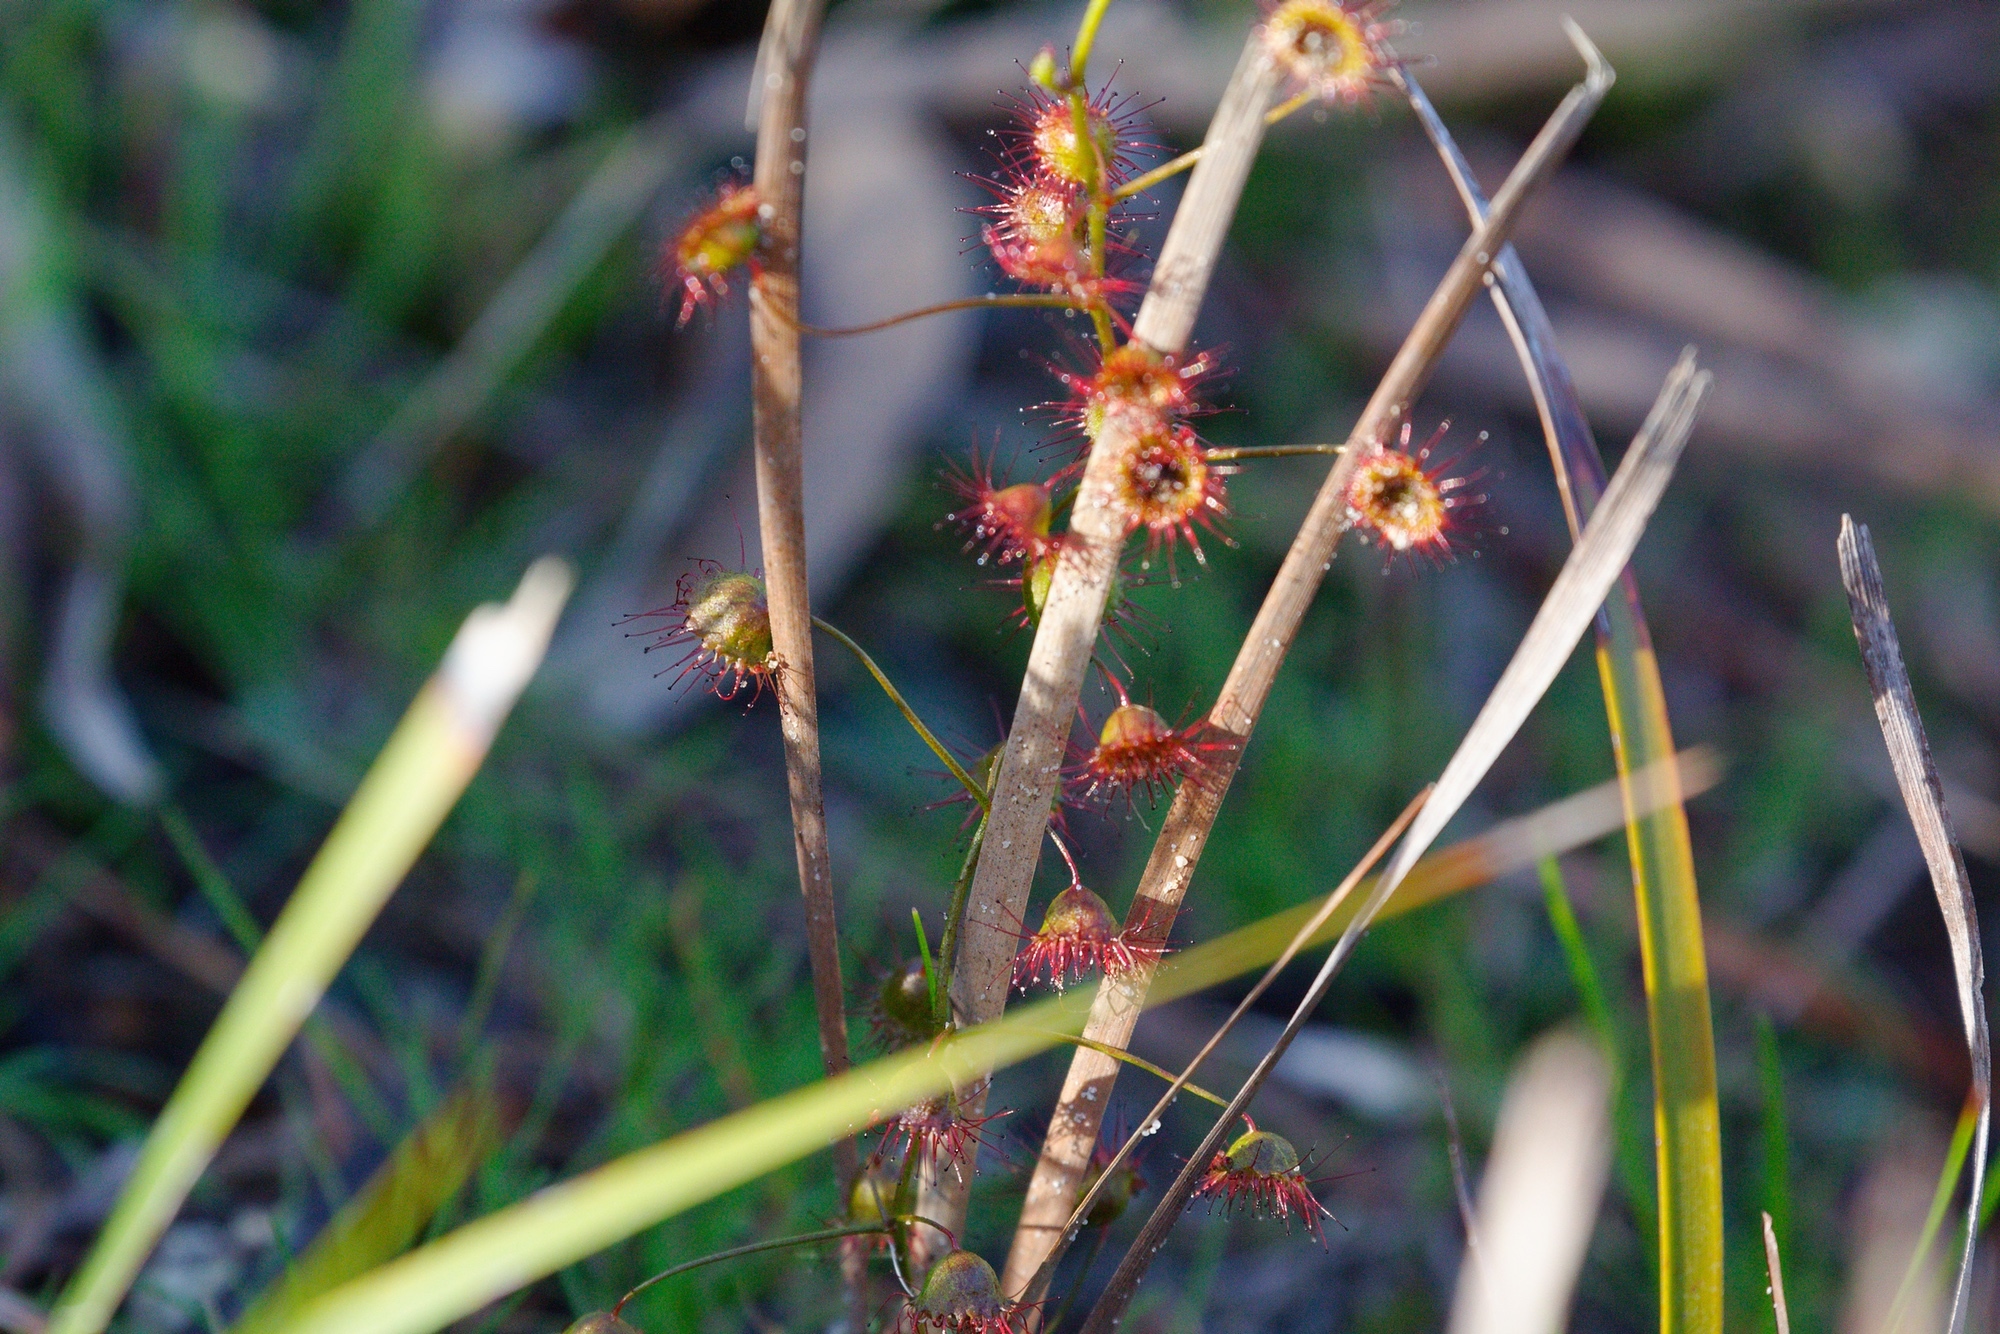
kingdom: Plantae
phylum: Tracheophyta
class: Magnoliopsida
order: Caryophyllales
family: Droseraceae
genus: Drosera
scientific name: Drosera planchonii
